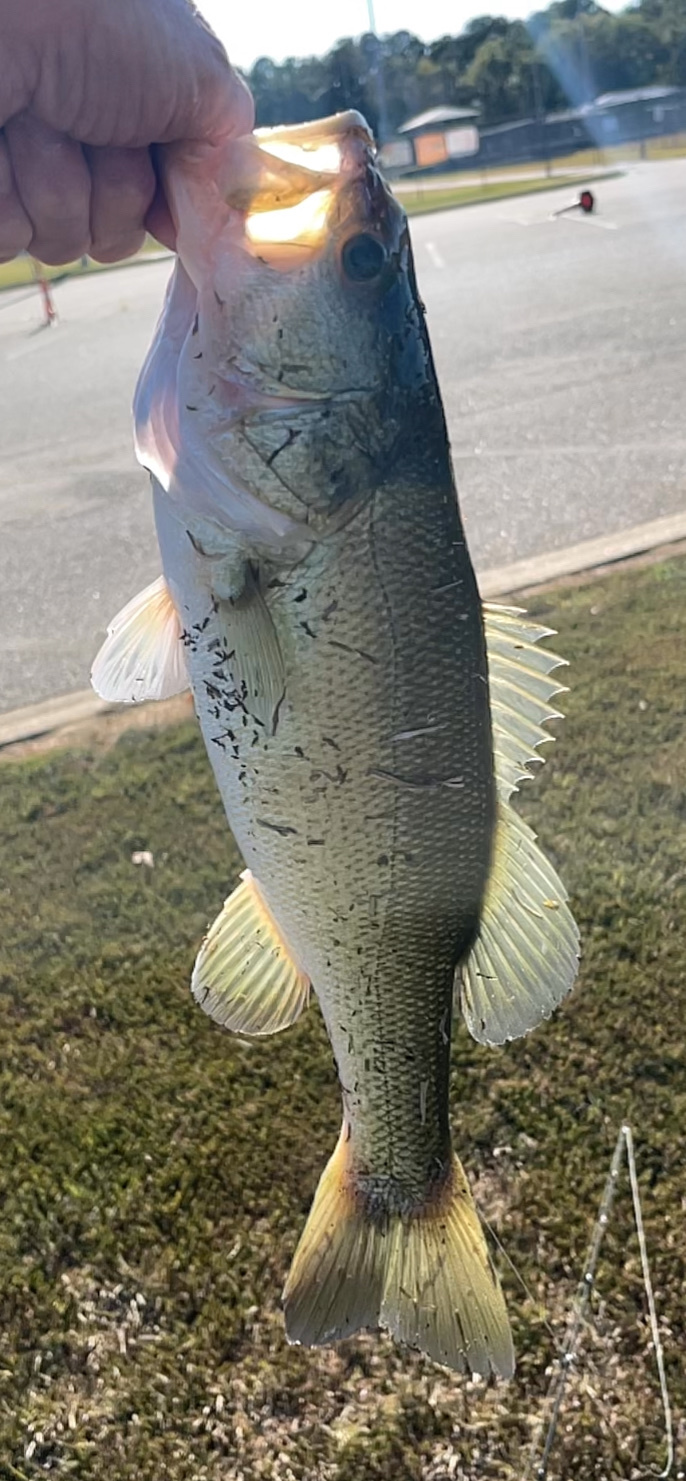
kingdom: Animalia
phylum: Chordata
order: Perciformes
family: Centrarchidae
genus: Micropterus
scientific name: Micropterus
